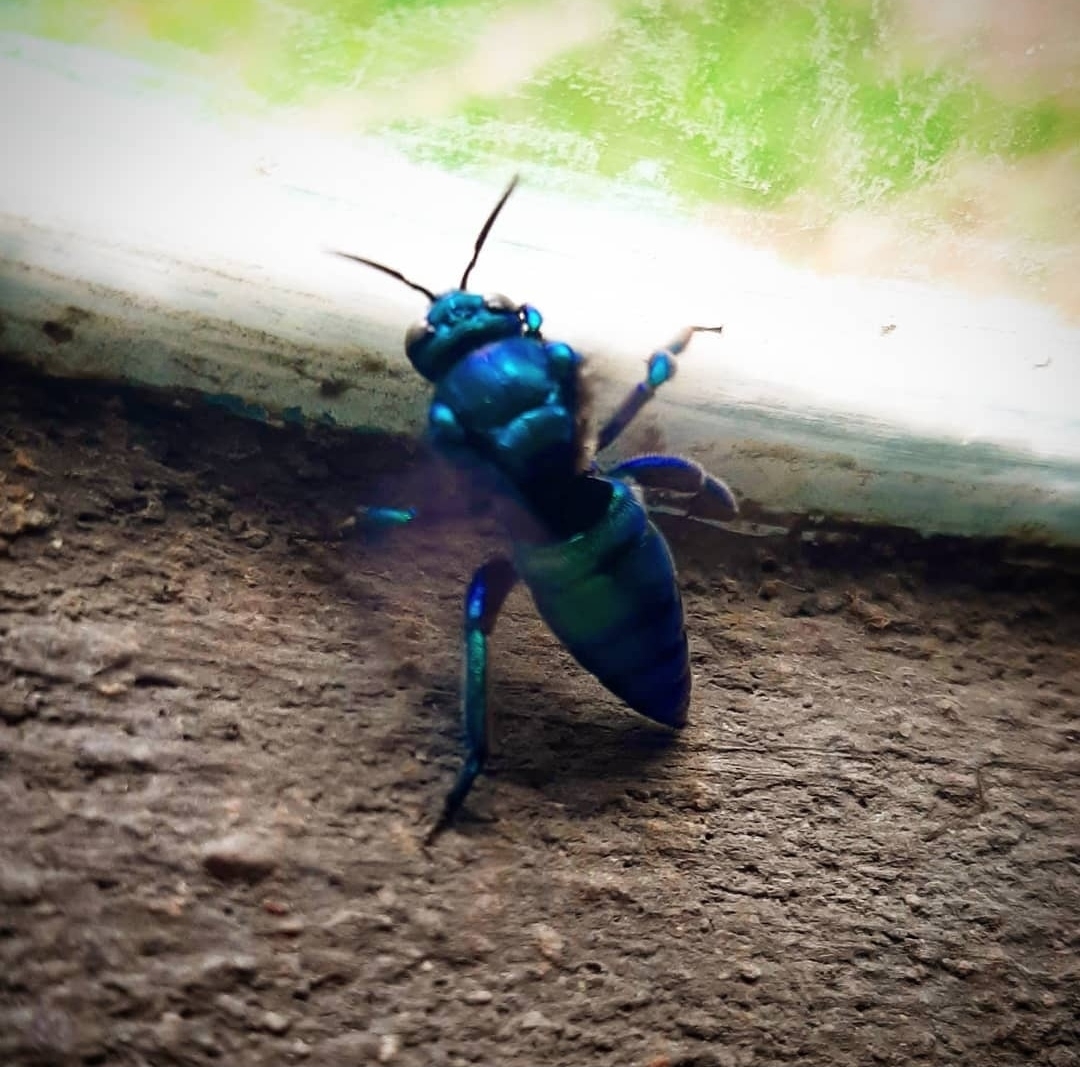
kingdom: Animalia
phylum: Arthropoda
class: Insecta
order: Hymenoptera
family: Apidae
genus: Exaerete
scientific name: Exaerete dentata
